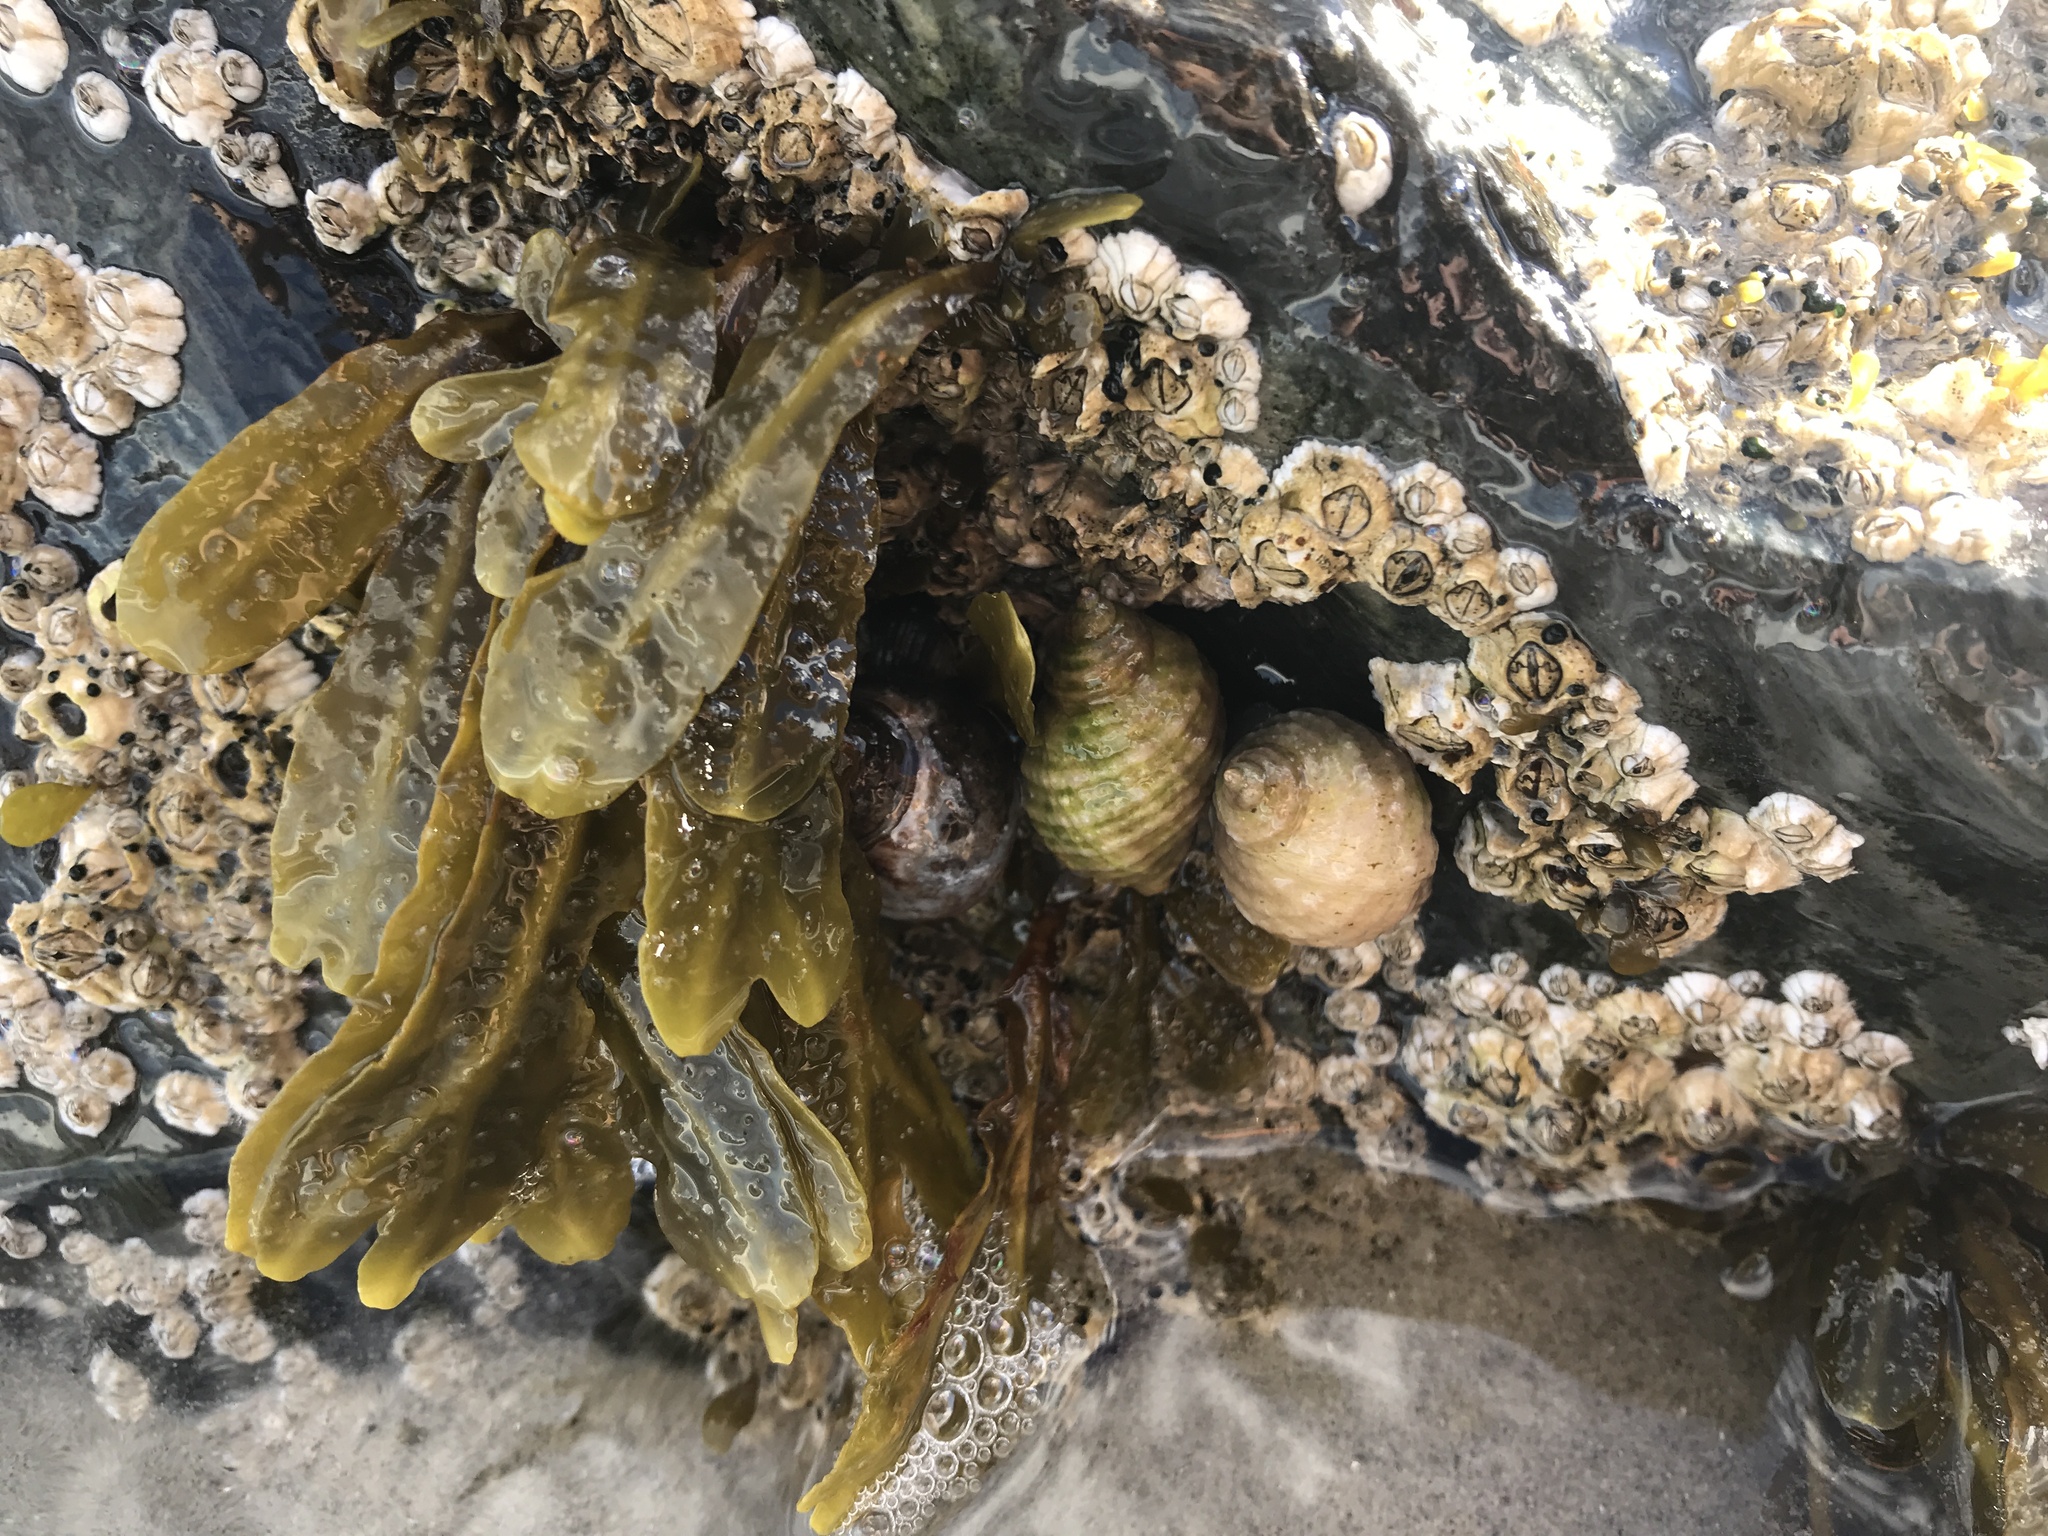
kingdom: Animalia
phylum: Mollusca
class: Gastropoda
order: Neogastropoda
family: Muricidae
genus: Nucella
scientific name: Nucella lapillus
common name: Dog whelk
